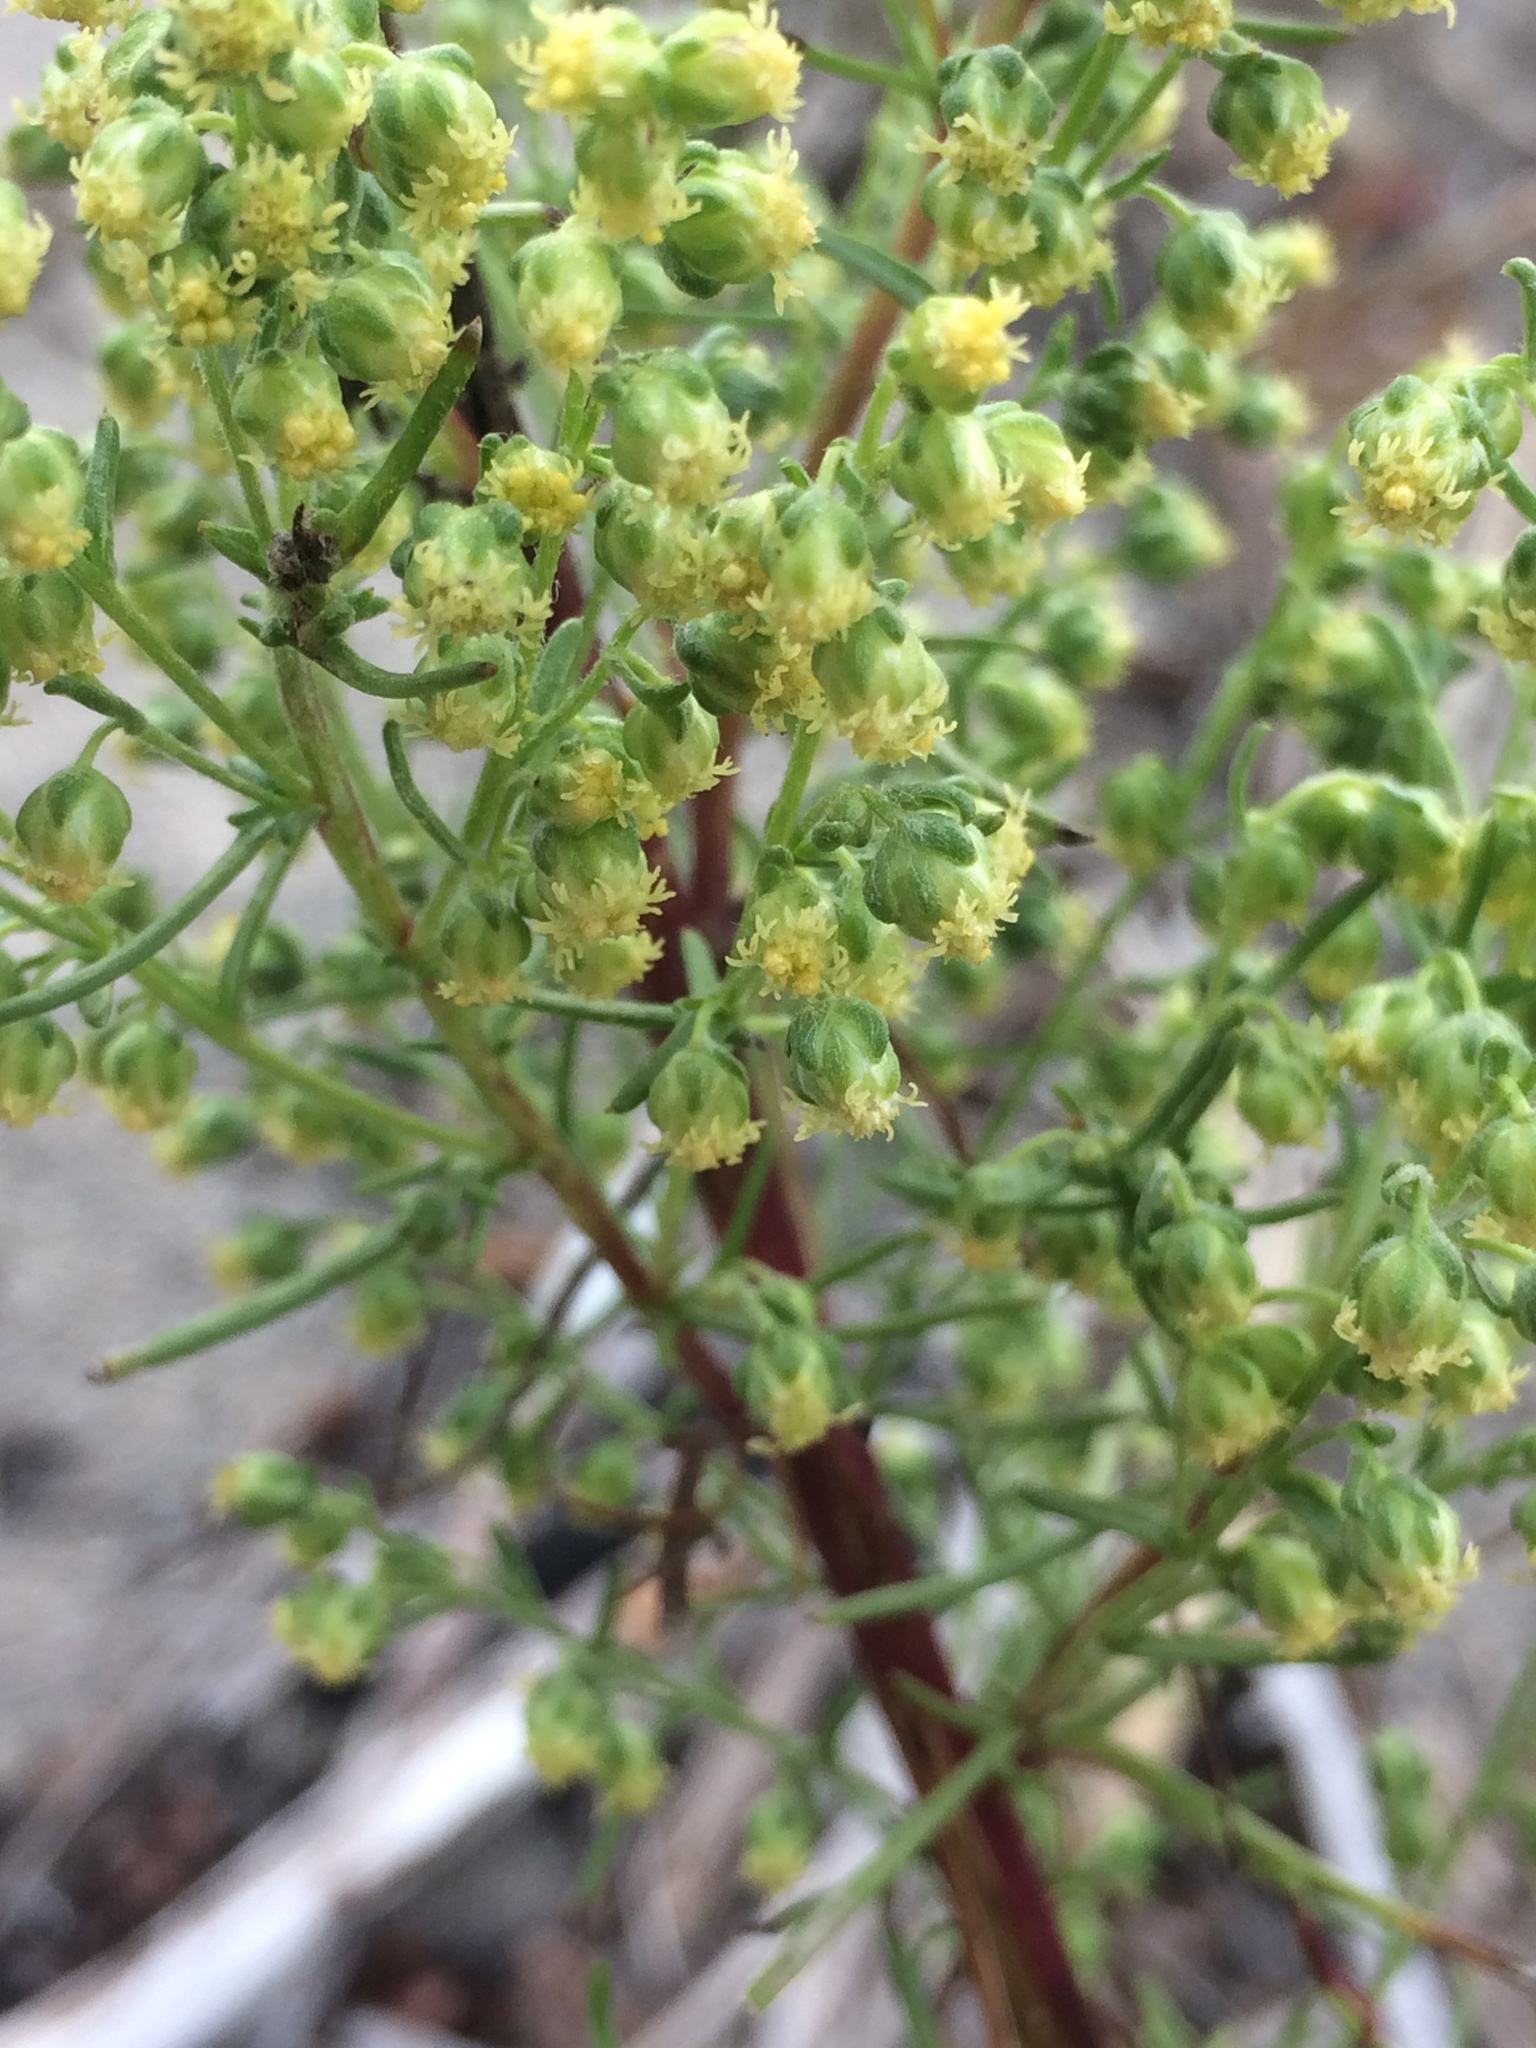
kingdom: Plantae
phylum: Tracheophyta
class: Magnoliopsida
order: Asterales
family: Asteraceae
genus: Artemisia
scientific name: Artemisia campestris
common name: Field wormwood
